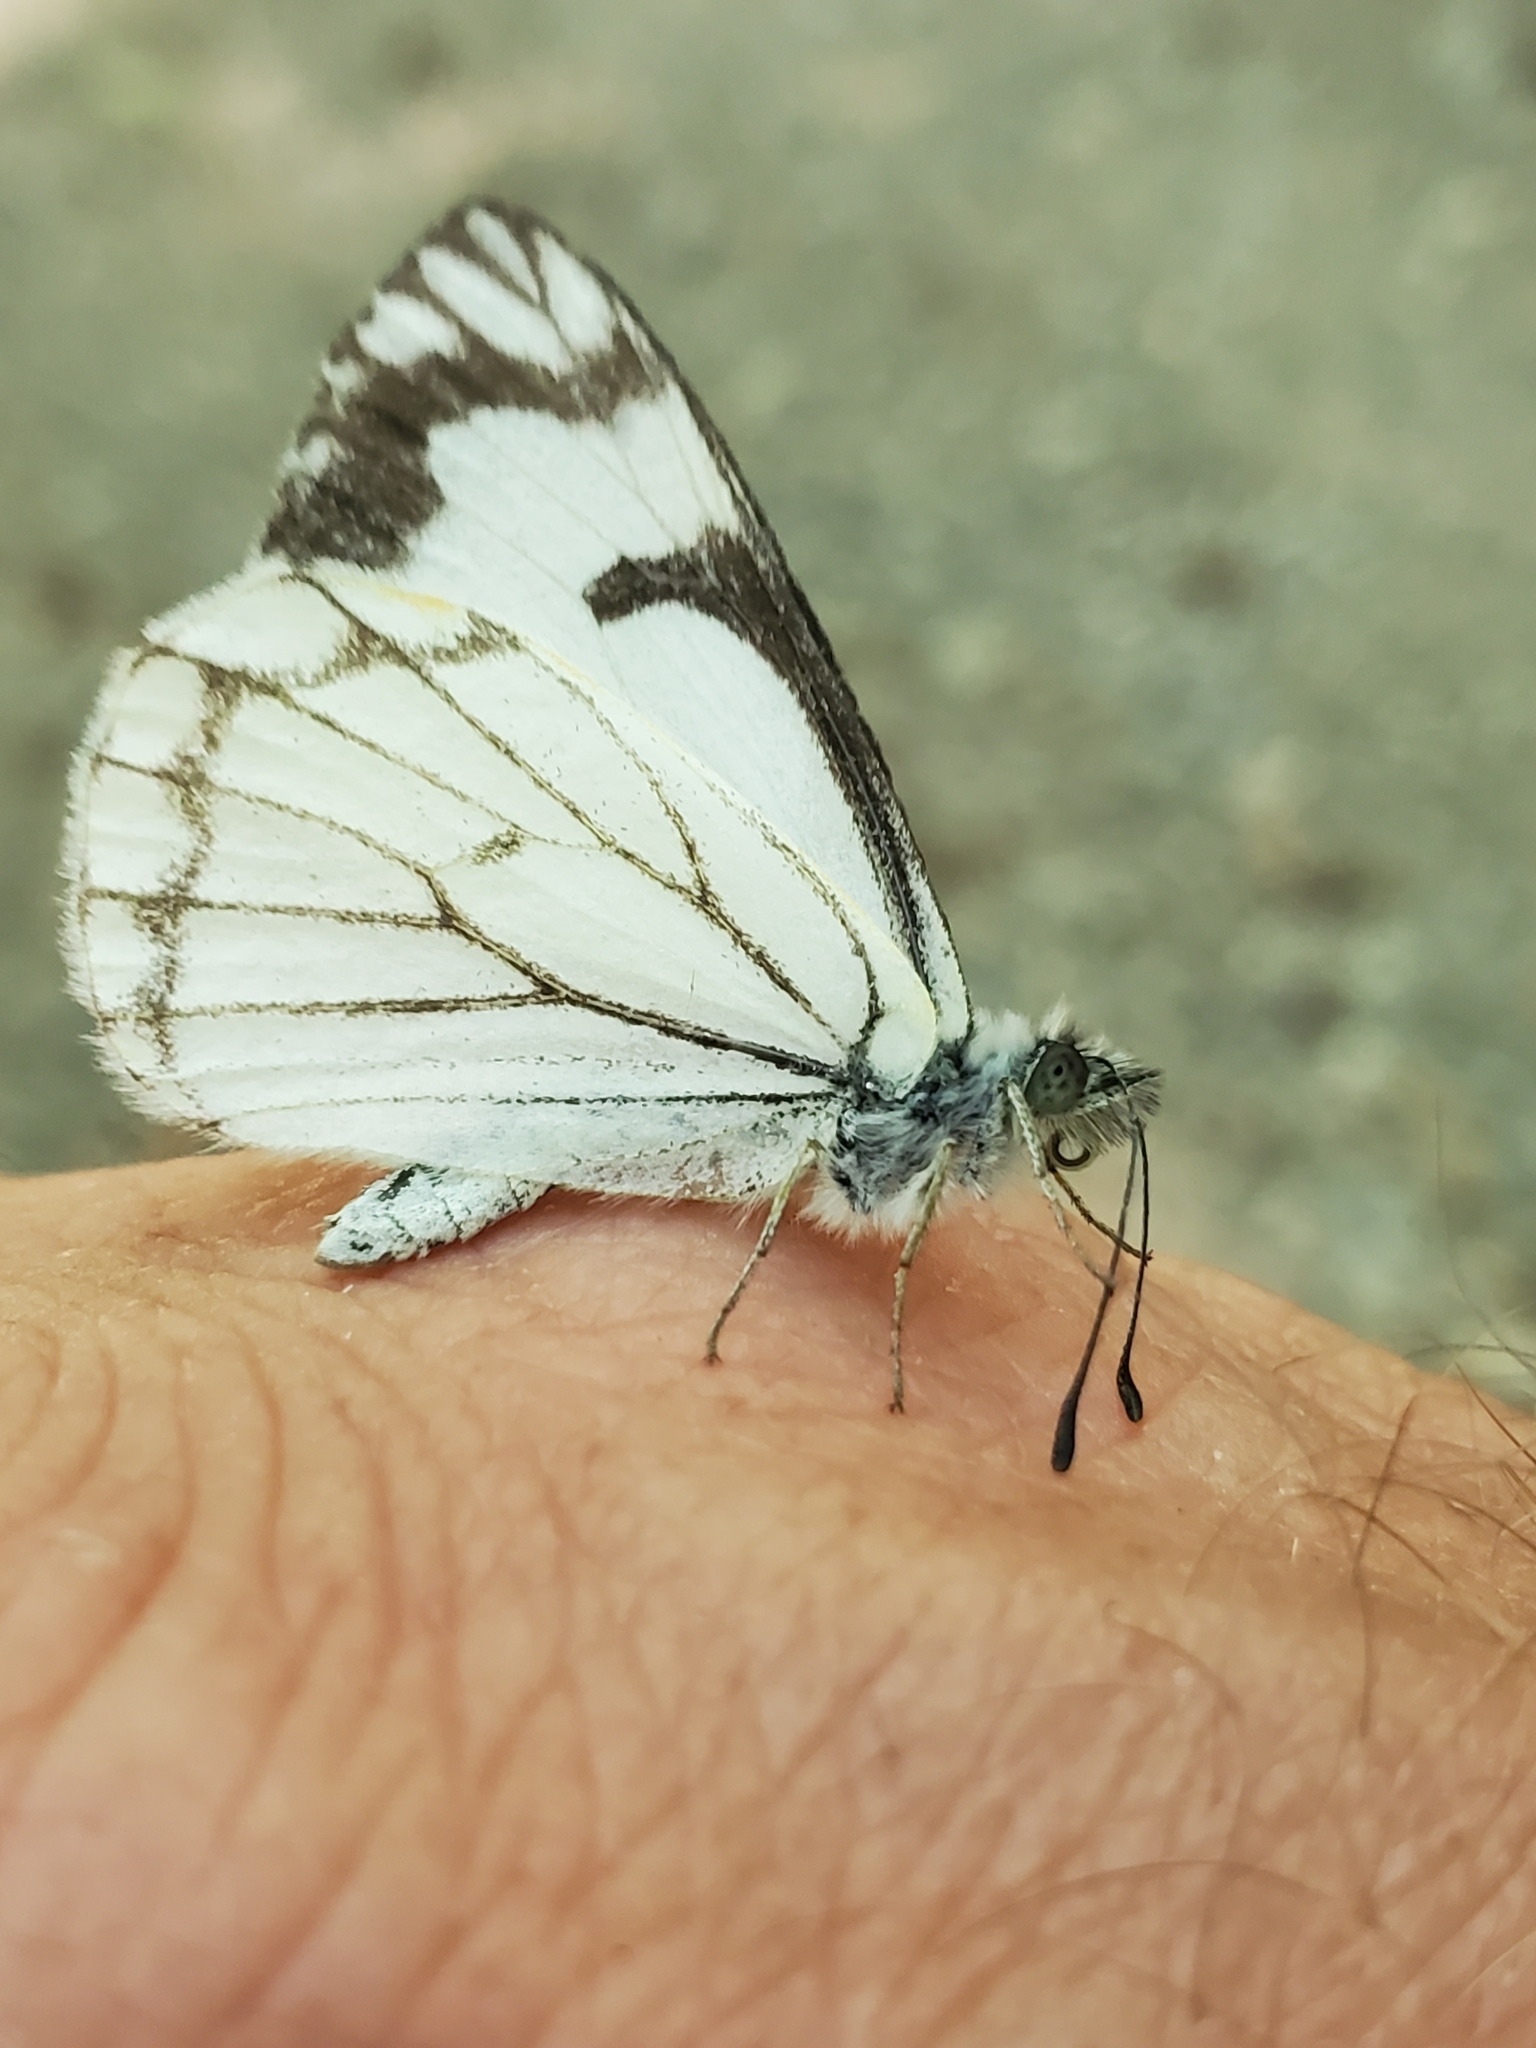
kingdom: Animalia
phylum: Arthropoda
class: Insecta
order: Lepidoptera
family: Pieridae
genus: Neophasia
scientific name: Neophasia menapia
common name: Pine white
